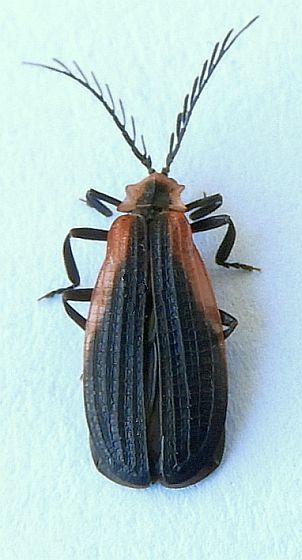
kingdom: Animalia
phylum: Arthropoda
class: Insecta
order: Coleoptera
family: Lycidae
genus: Caenia
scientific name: Caenia amplicornis
